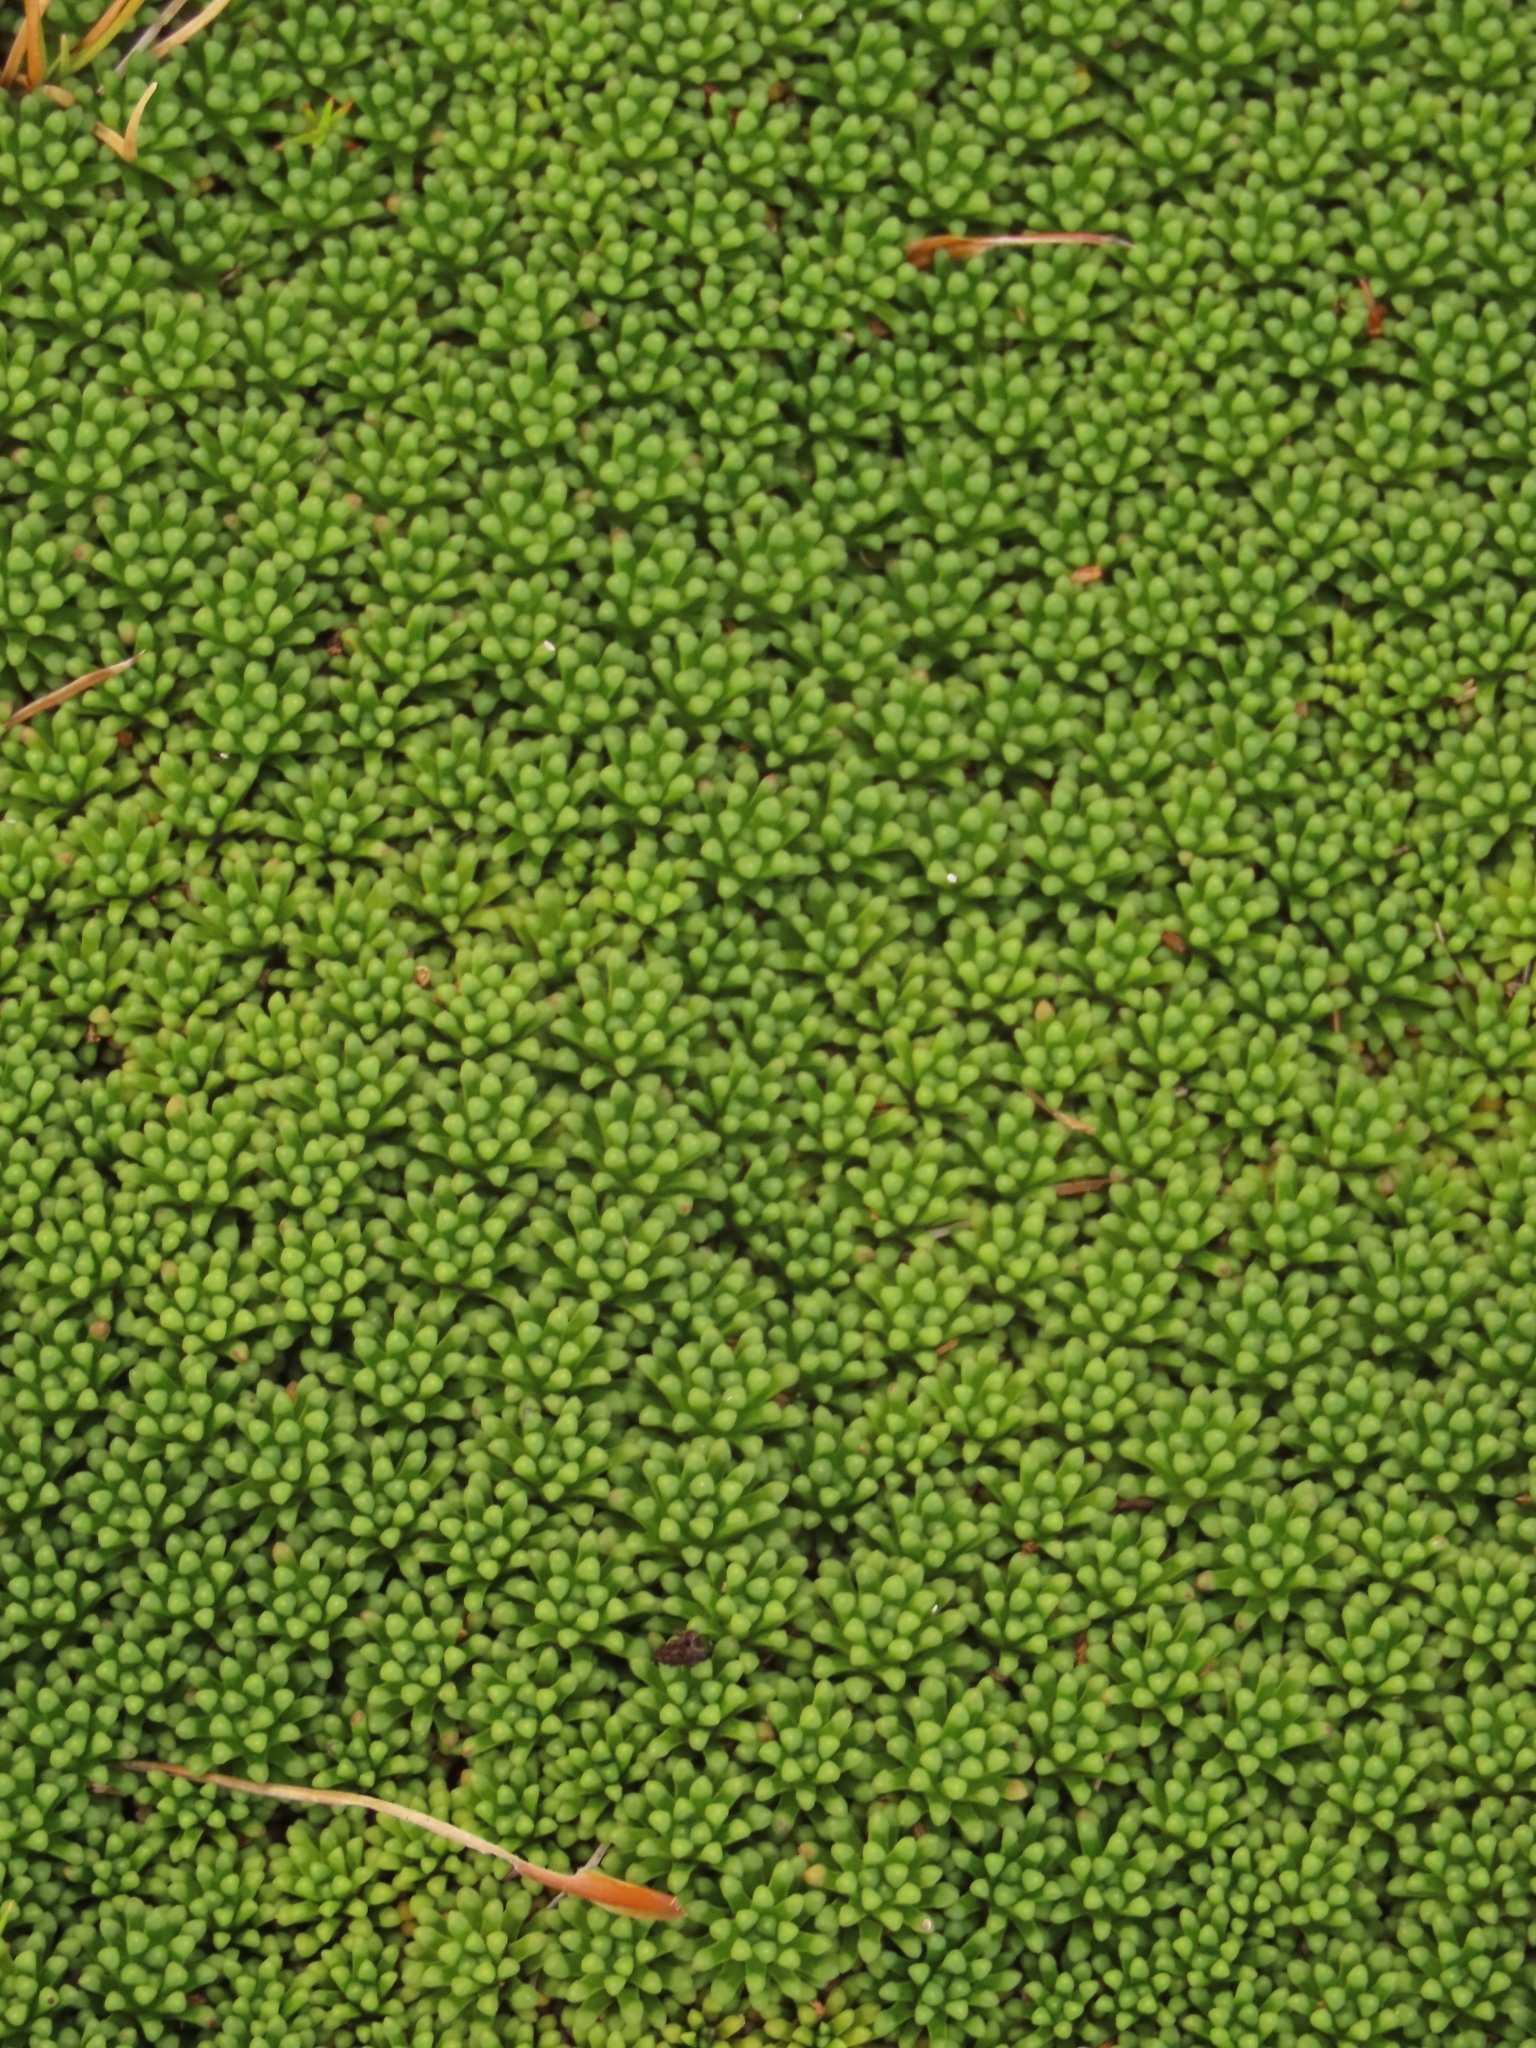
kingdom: Plantae
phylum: Tracheophyta
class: Magnoliopsida
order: Asterales
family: Stylidiaceae
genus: Phyllachne
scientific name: Phyllachne colensoi
